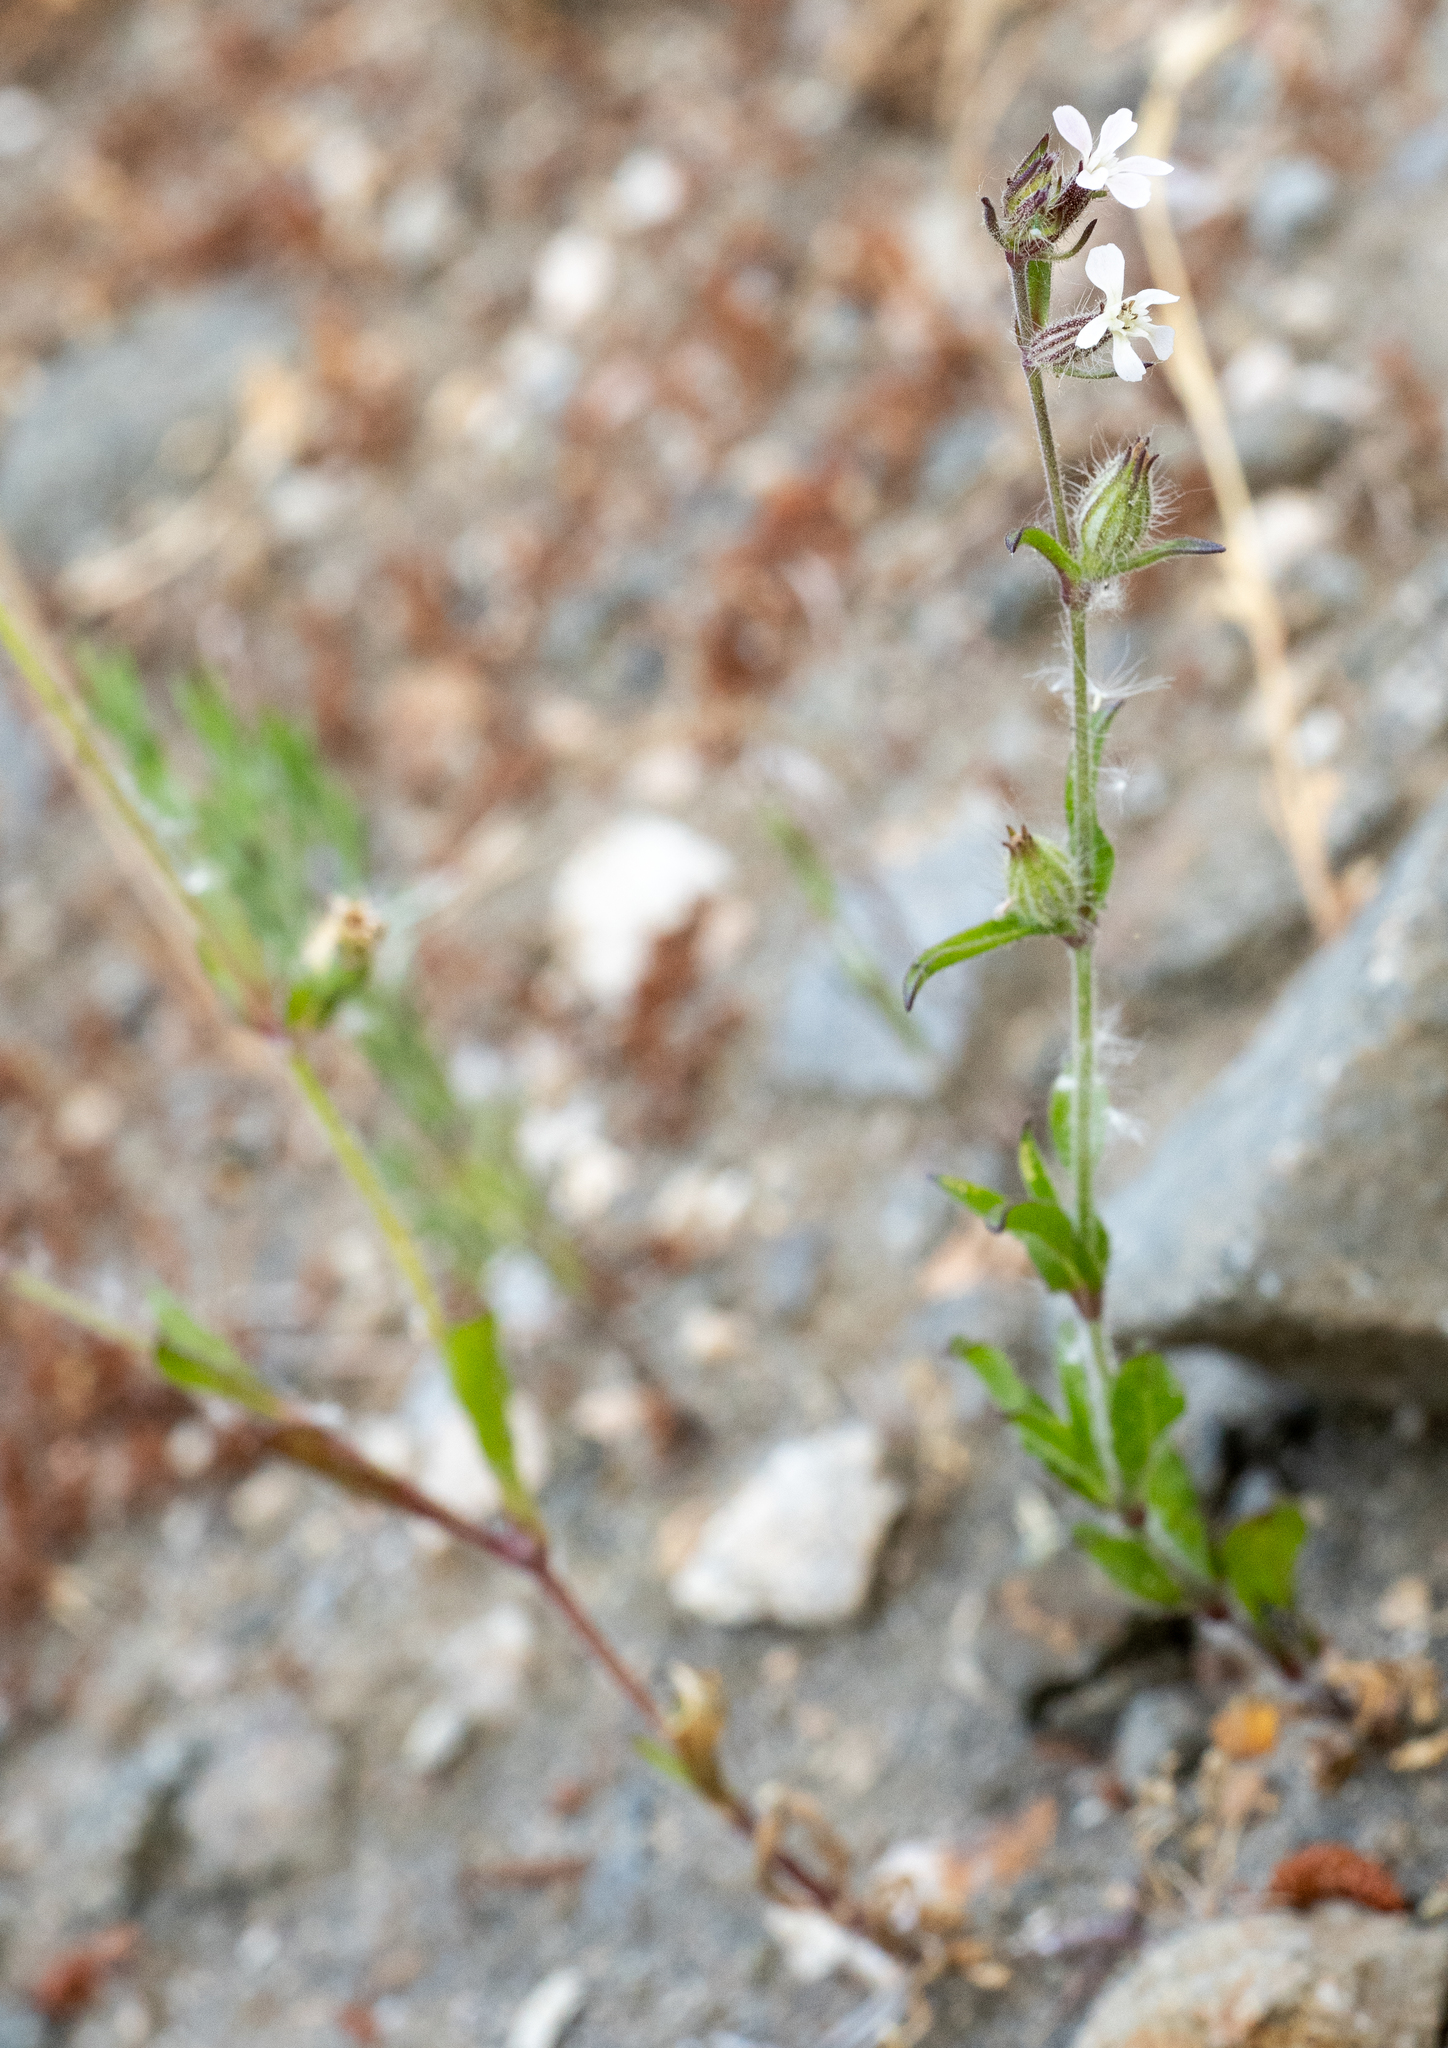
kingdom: Plantae
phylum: Tracheophyta
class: Magnoliopsida
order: Caryophyllales
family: Caryophyllaceae
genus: Silene
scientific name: Silene gallica
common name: Small-flowered catchfly
